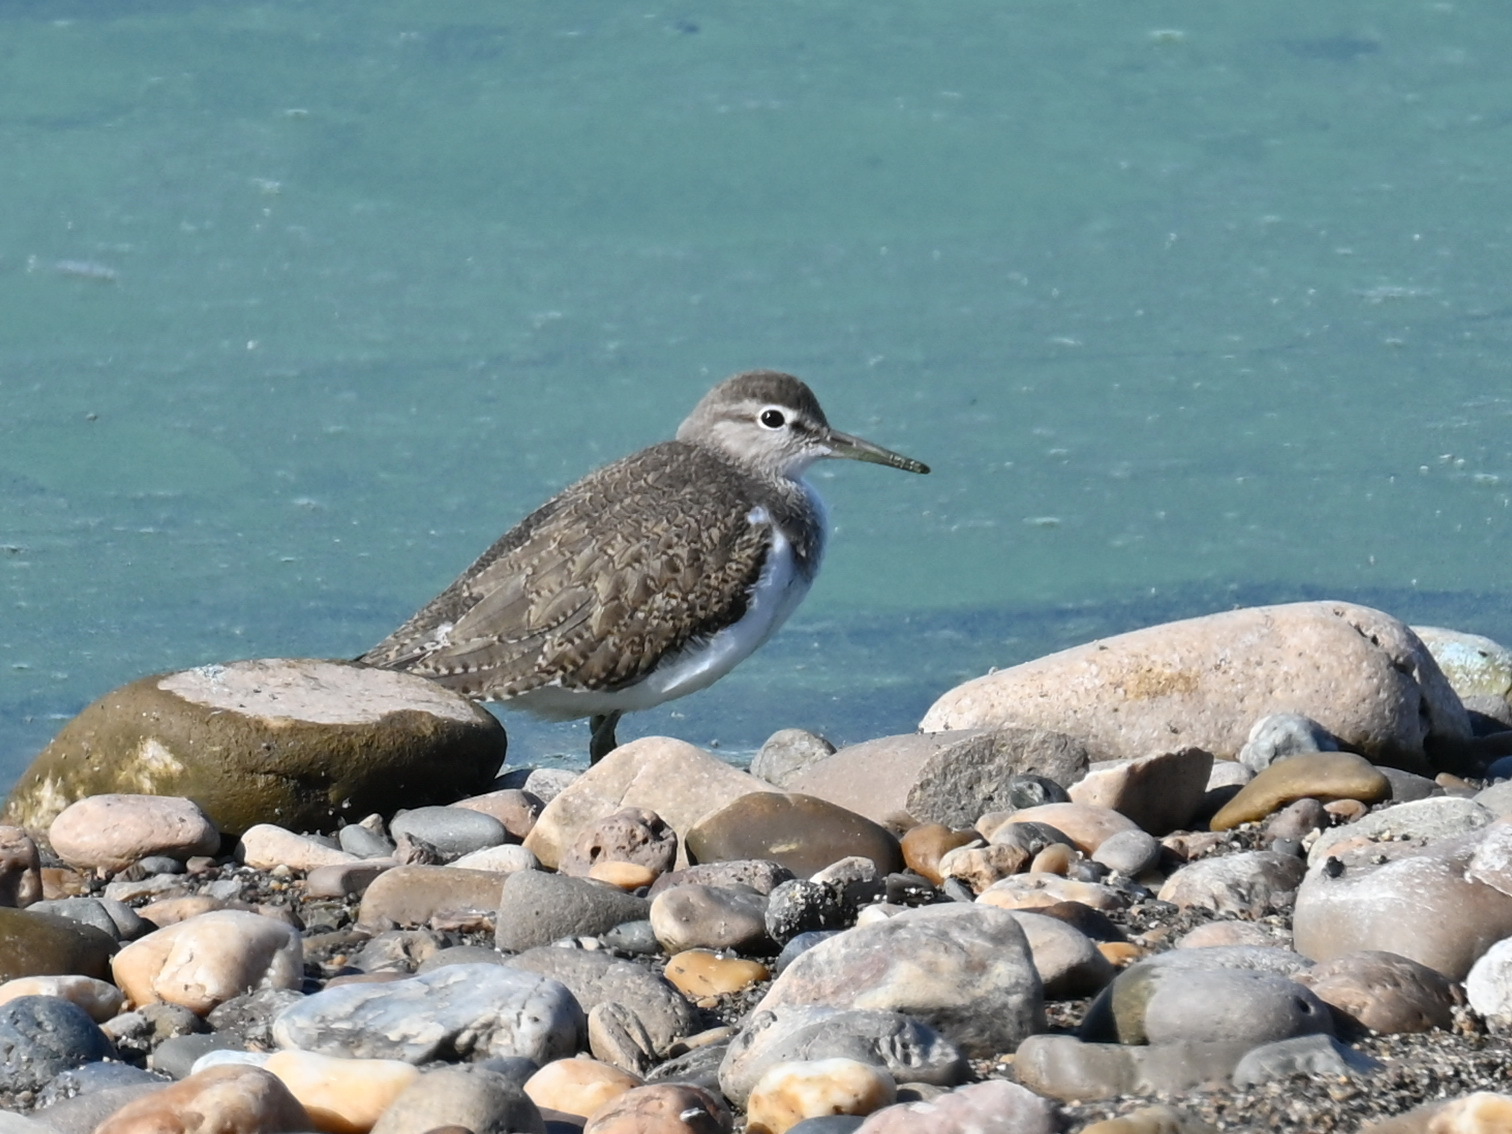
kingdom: Animalia
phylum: Chordata
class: Aves
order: Charadriiformes
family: Scolopacidae
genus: Actitis
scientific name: Actitis hypoleucos
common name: Common sandpiper
